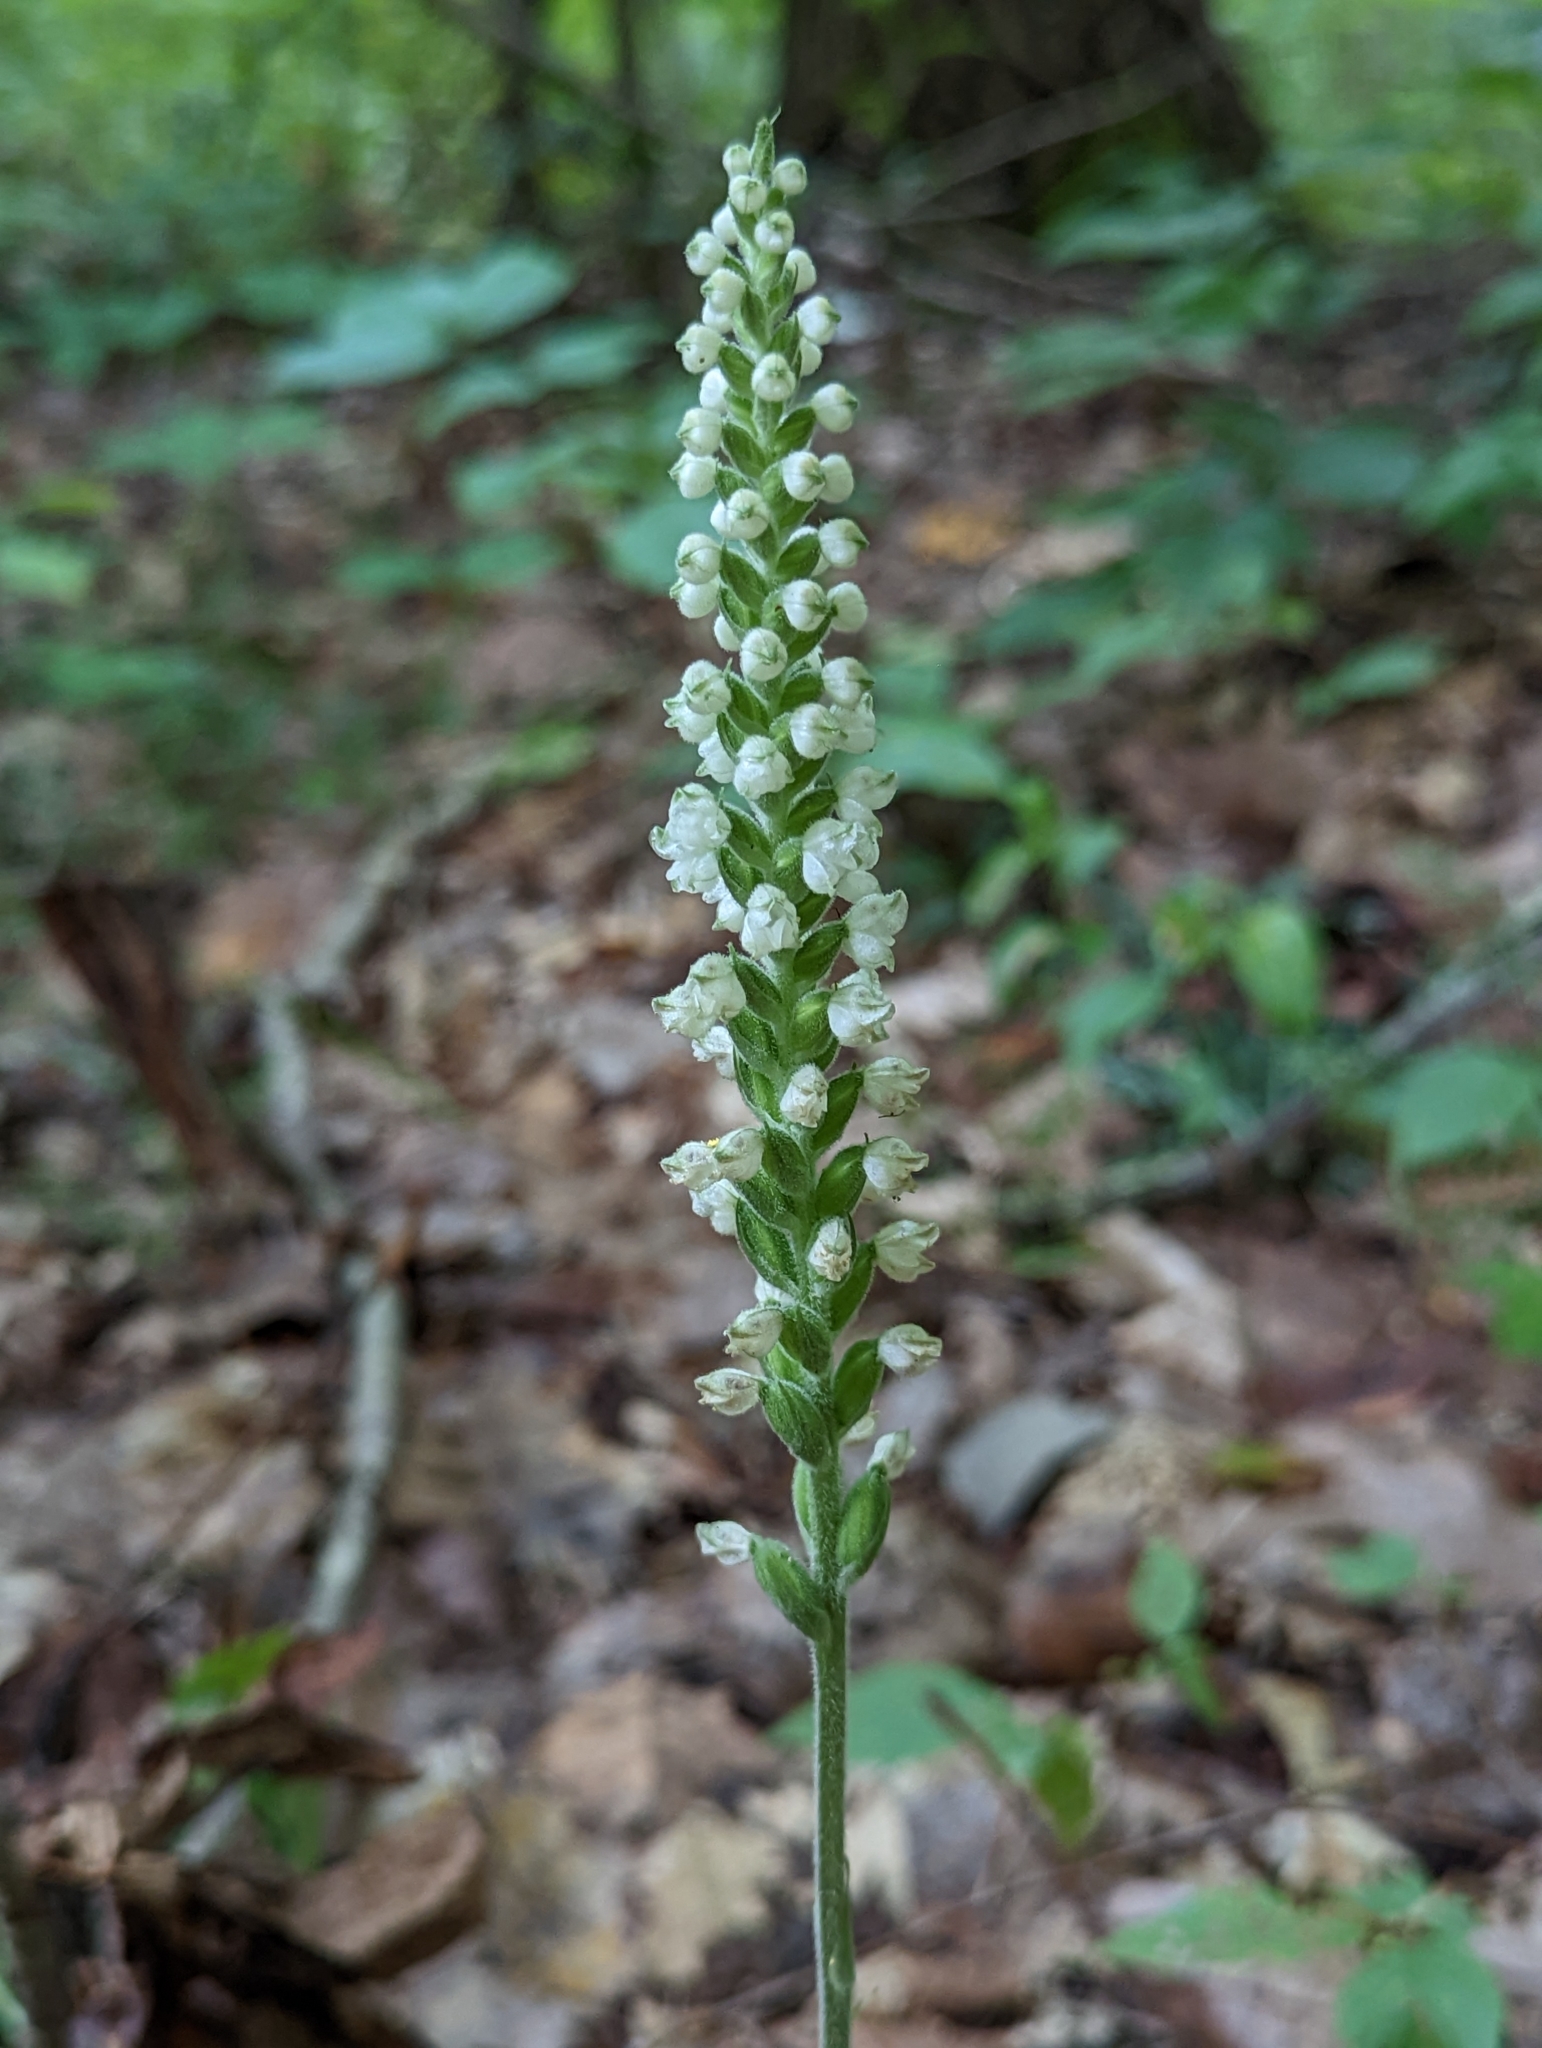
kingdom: Plantae
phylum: Tracheophyta
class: Liliopsida
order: Asparagales
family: Orchidaceae
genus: Goodyera
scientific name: Goodyera pubescens
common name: Downy rattlesnake-plantain
